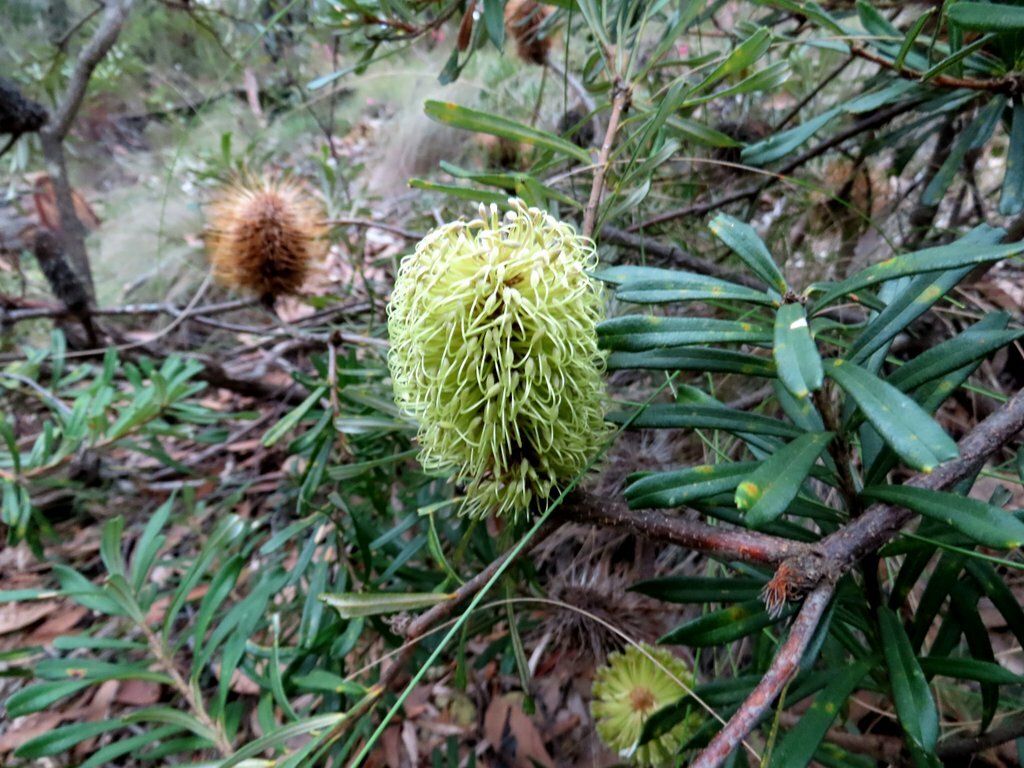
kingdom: Plantae
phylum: Tracheophyta
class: Magnoliopsida
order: Proteales
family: Proteaceae
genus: Banksia
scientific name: Banksia marginata
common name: Silver banksia
